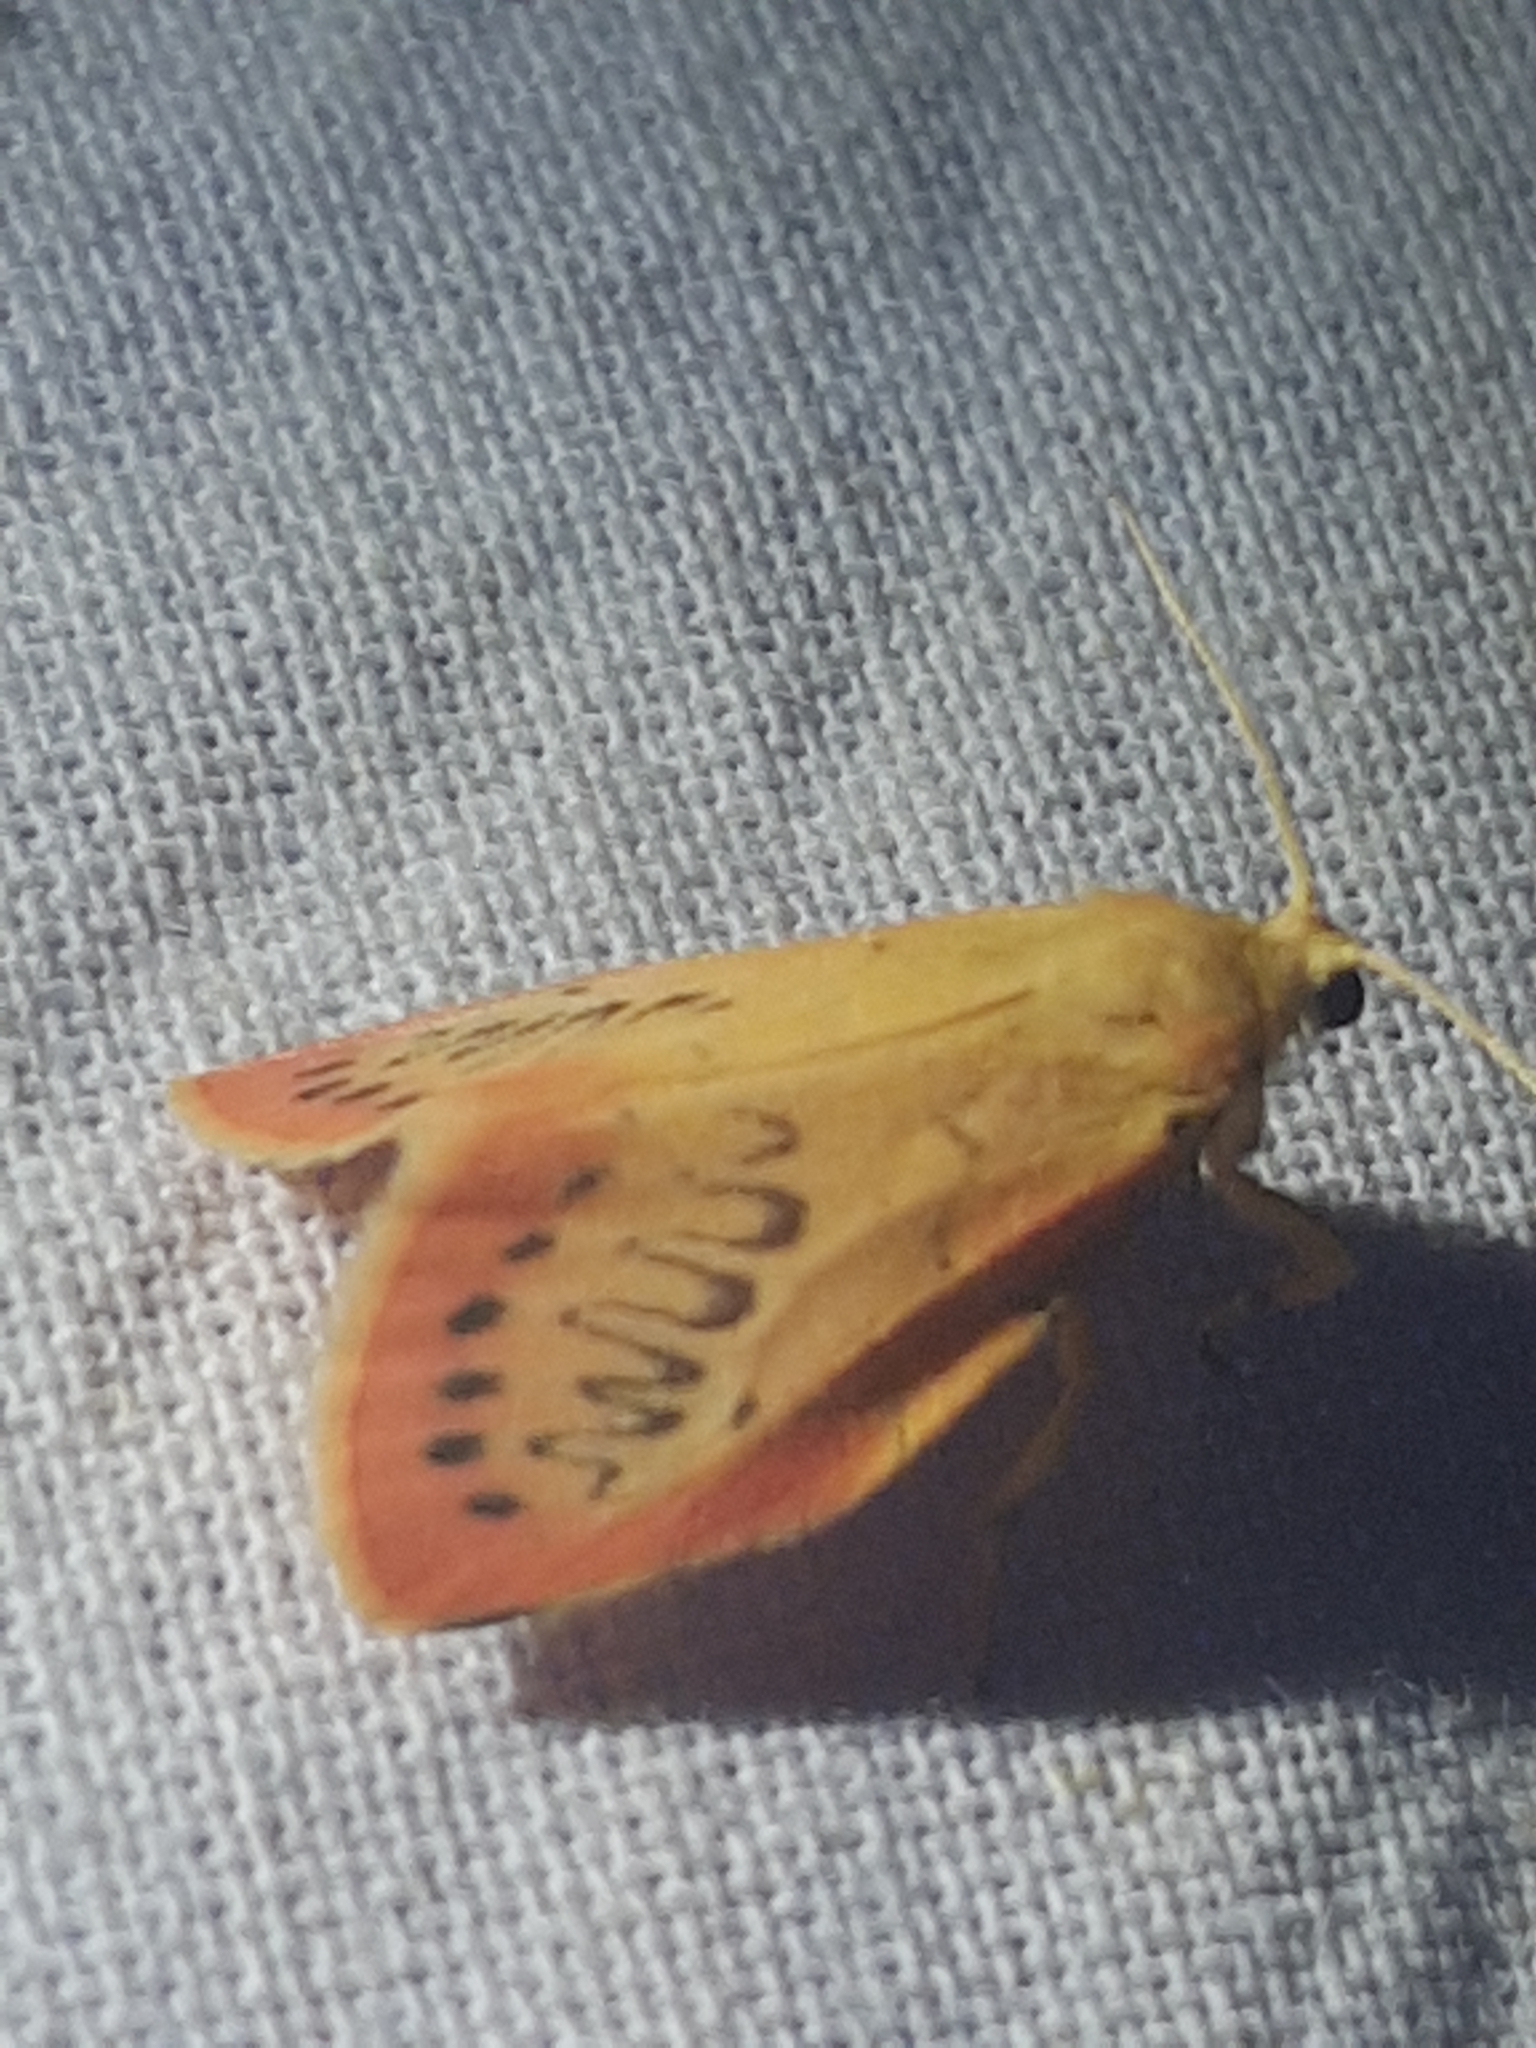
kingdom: Animalia
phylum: Arthropoda
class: Insecta
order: Lepidoptera
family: Erebidae
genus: Miltochrista
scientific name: Miltochrista miniata
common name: Rosy footman
